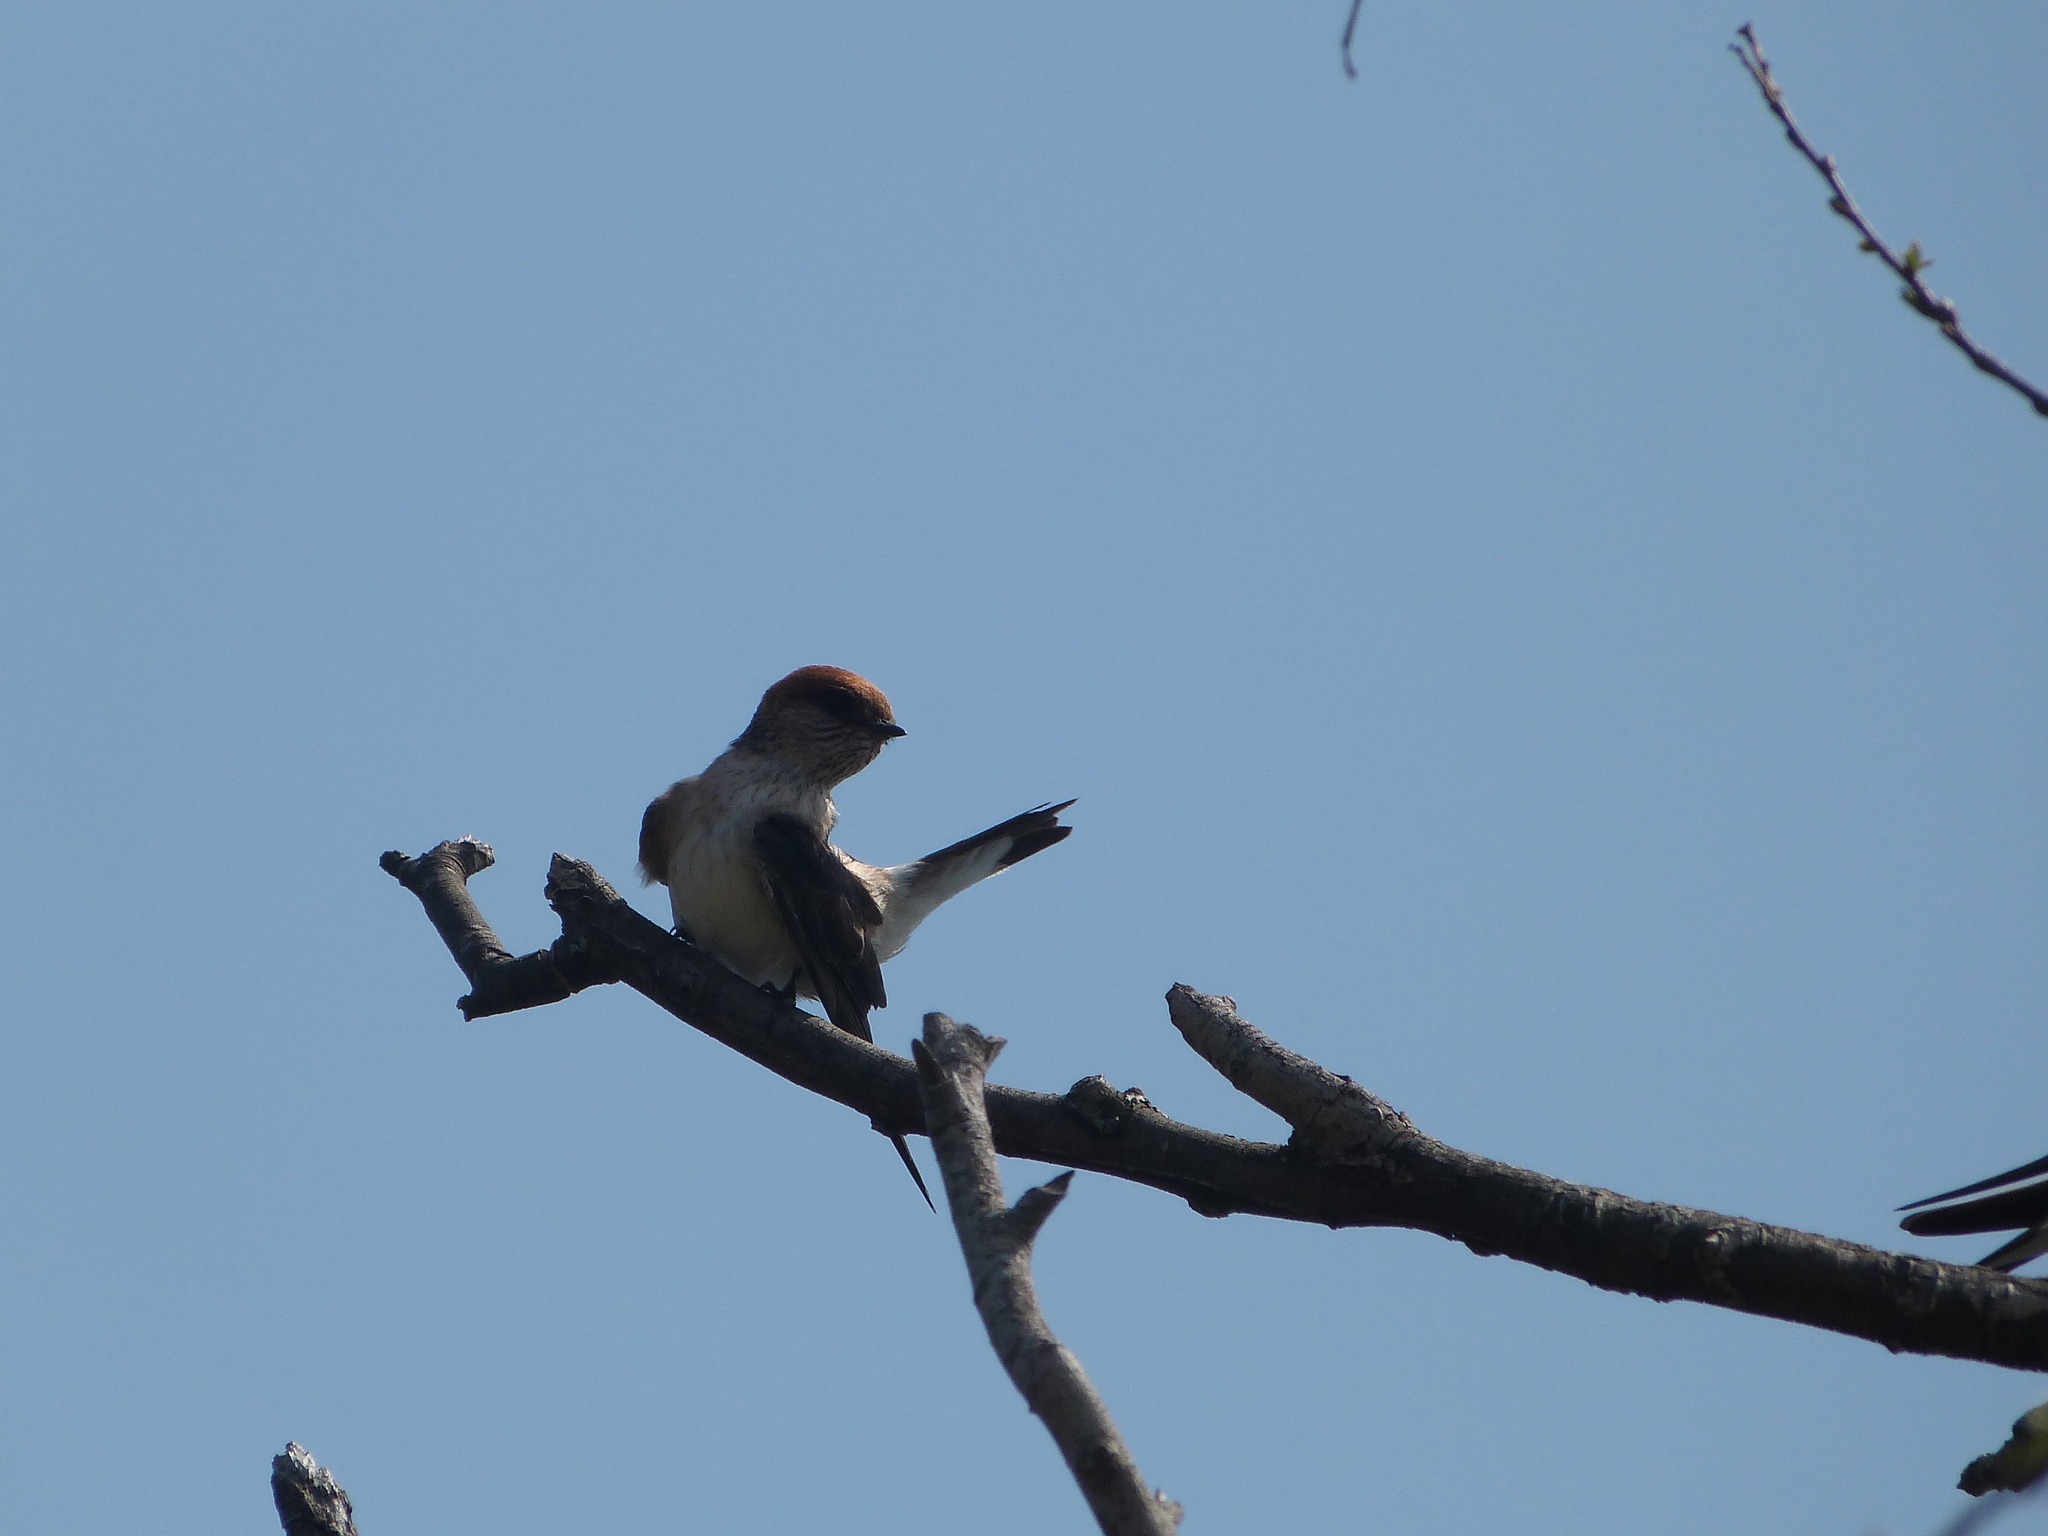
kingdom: Animalia
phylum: Chordata
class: Aves
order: Passeriformes
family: Hirundinidae
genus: Petrochelidon
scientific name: Petrochelidon ariel
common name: Fairy martin
